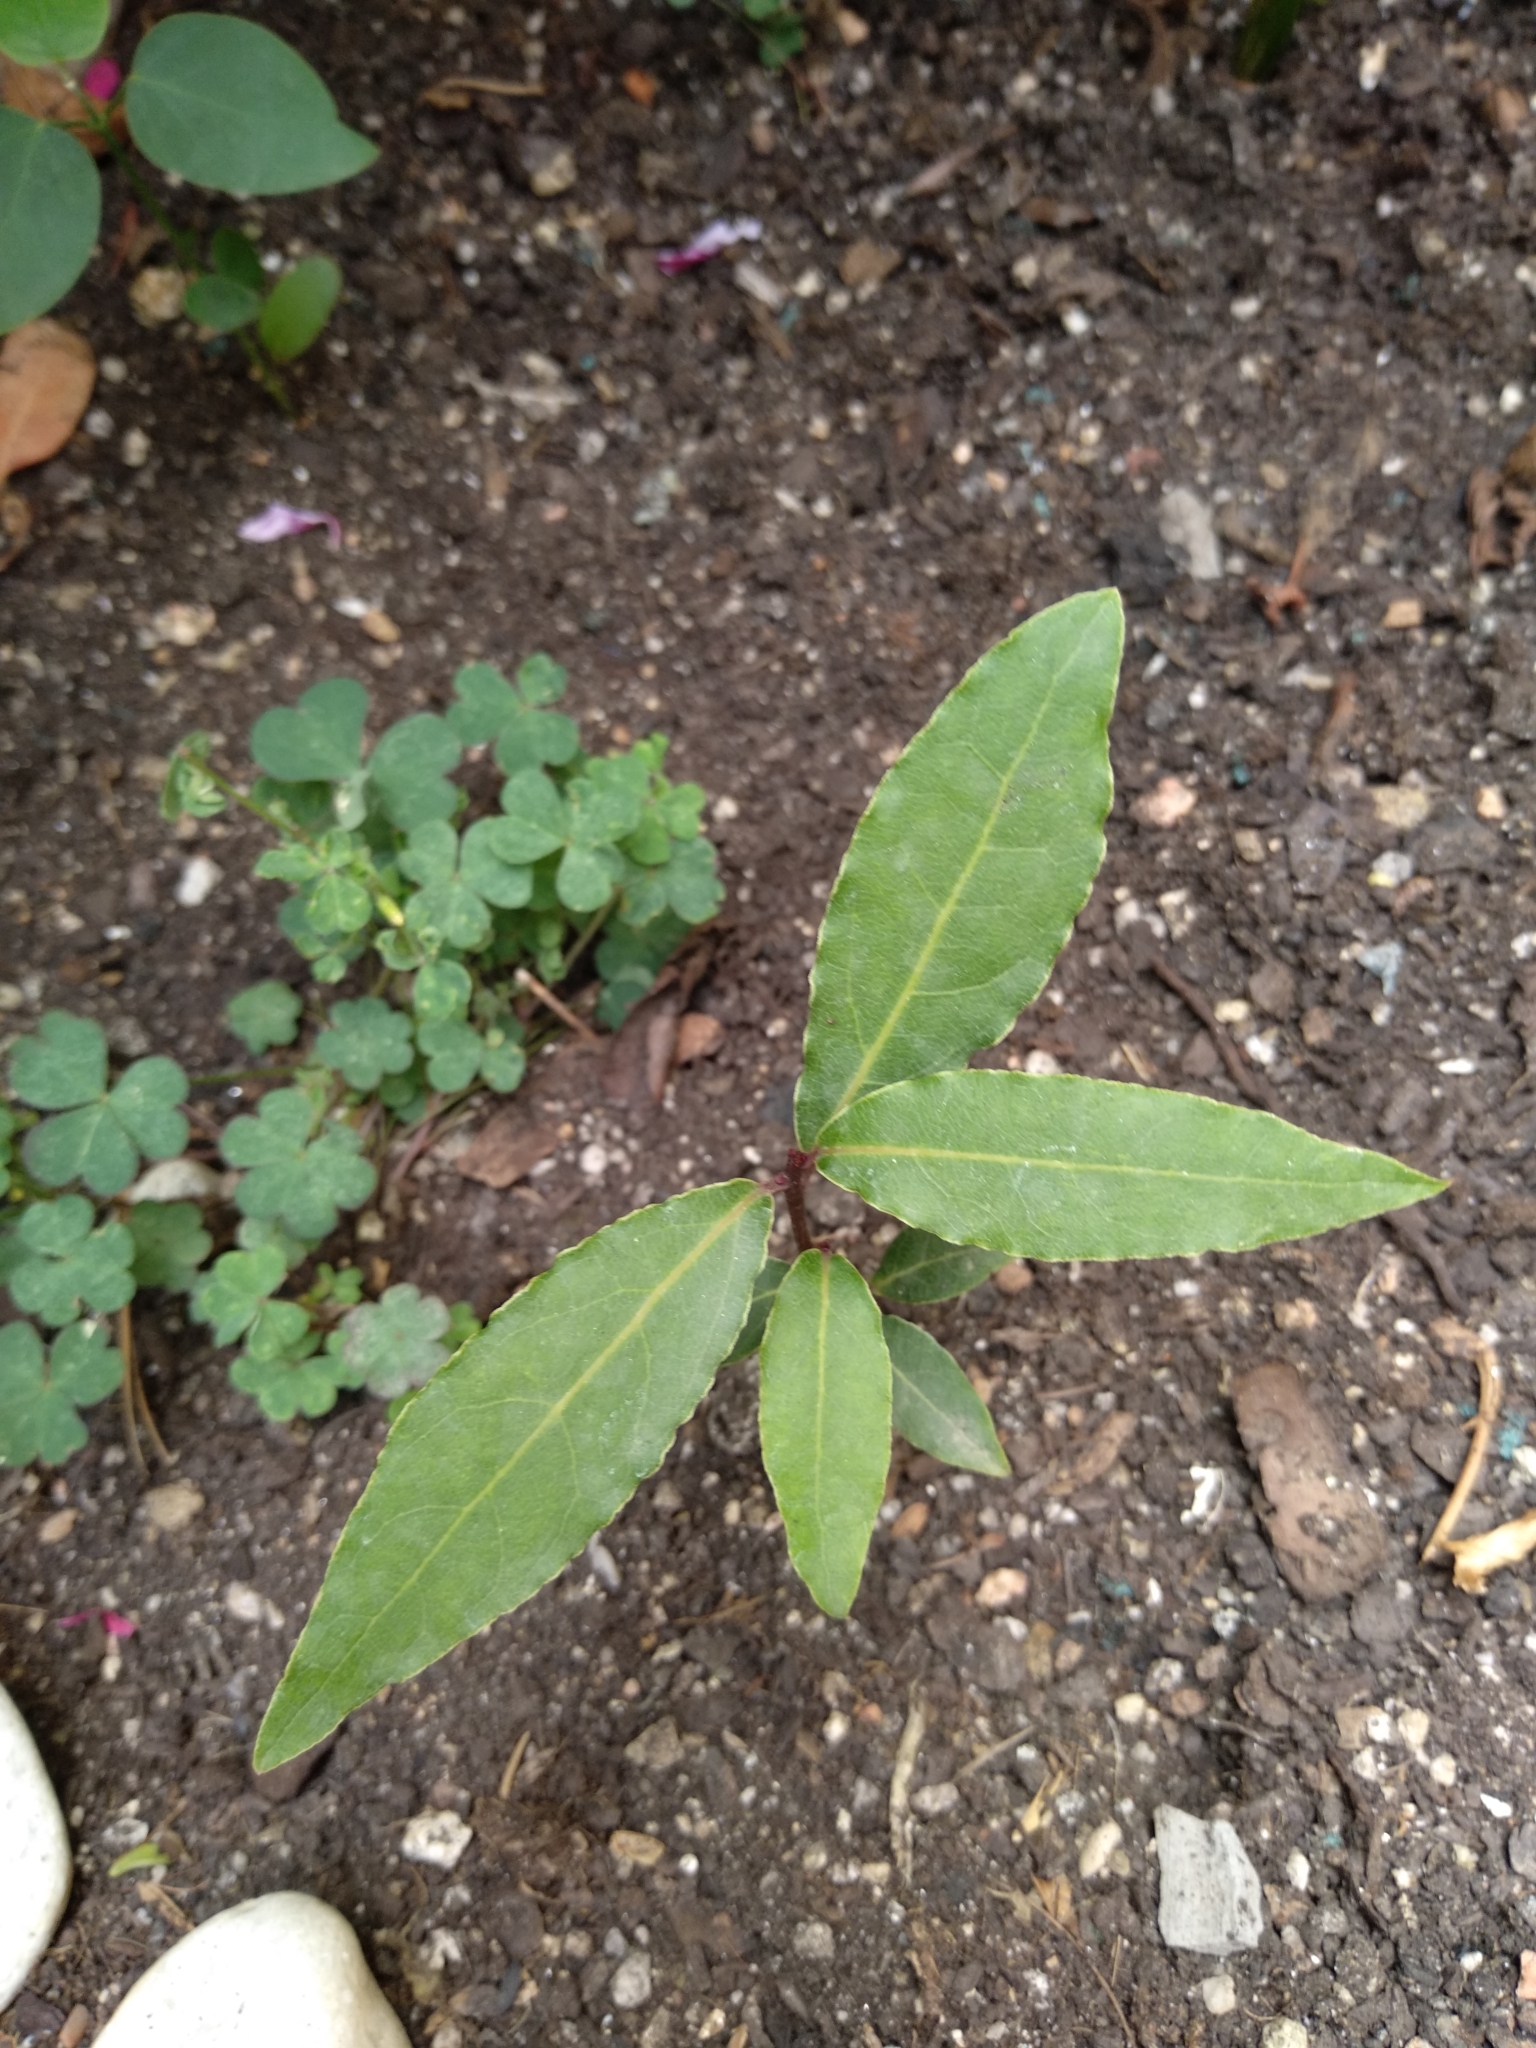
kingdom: Plantae
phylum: Tracheophyta
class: Magnoliopsida
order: Laurales
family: Lauraceae
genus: Laurus
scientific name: Laurus nobilis
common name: Bay
